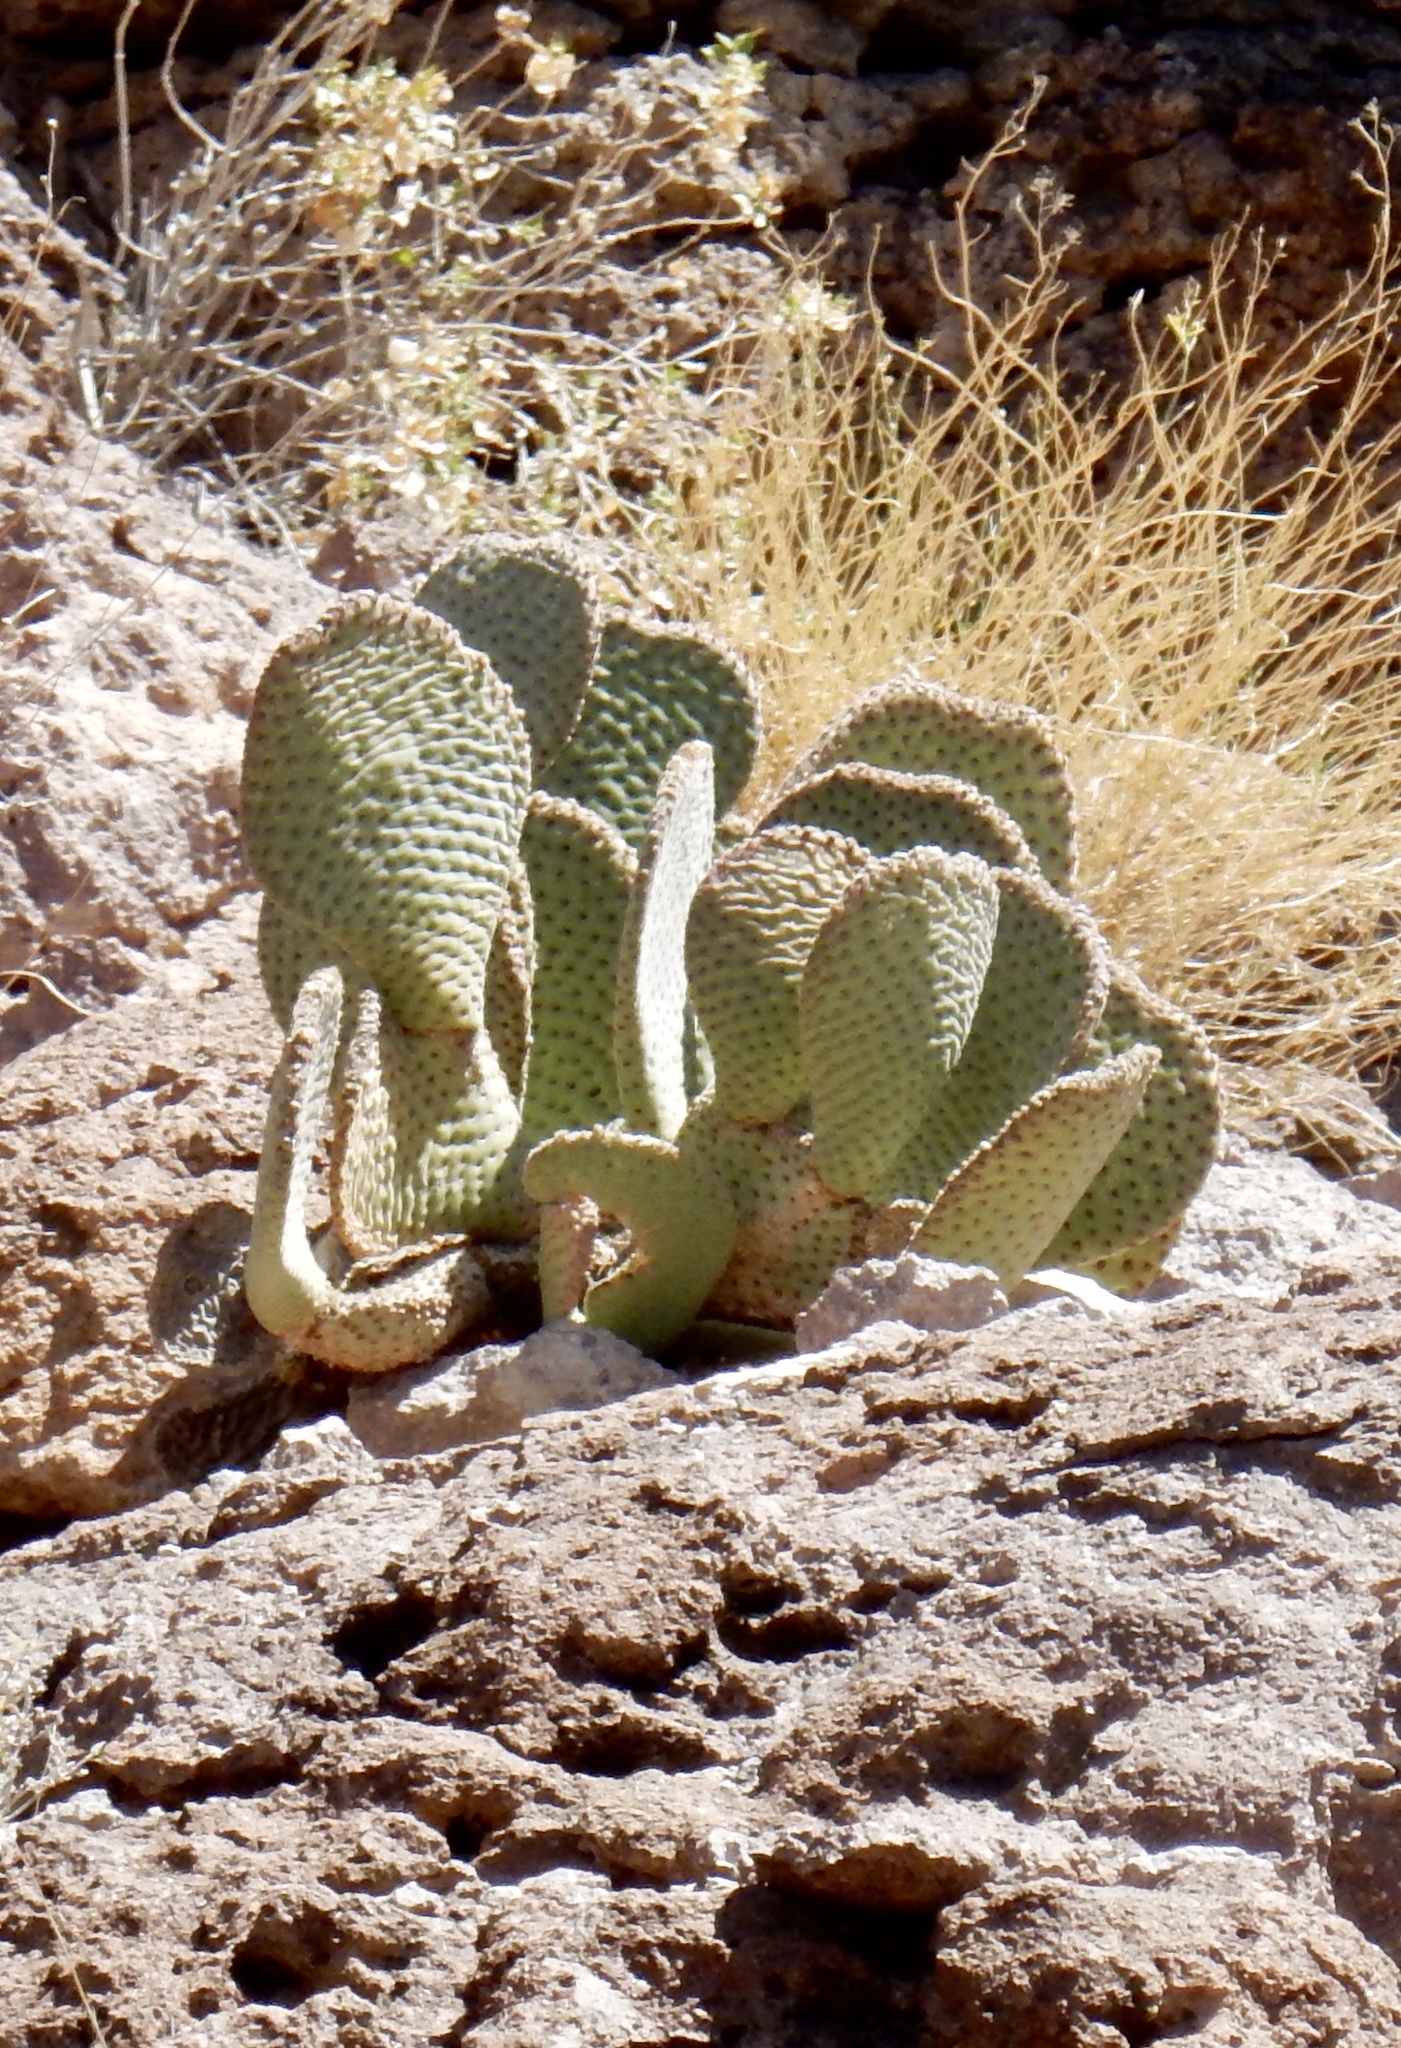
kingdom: Plantae
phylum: Tracheophyta
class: Magnoliopsida
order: Caryophyllales
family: Cactaceae
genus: Opuntia
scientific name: Opuntia basilaris
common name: Beavertail prickly-pear
